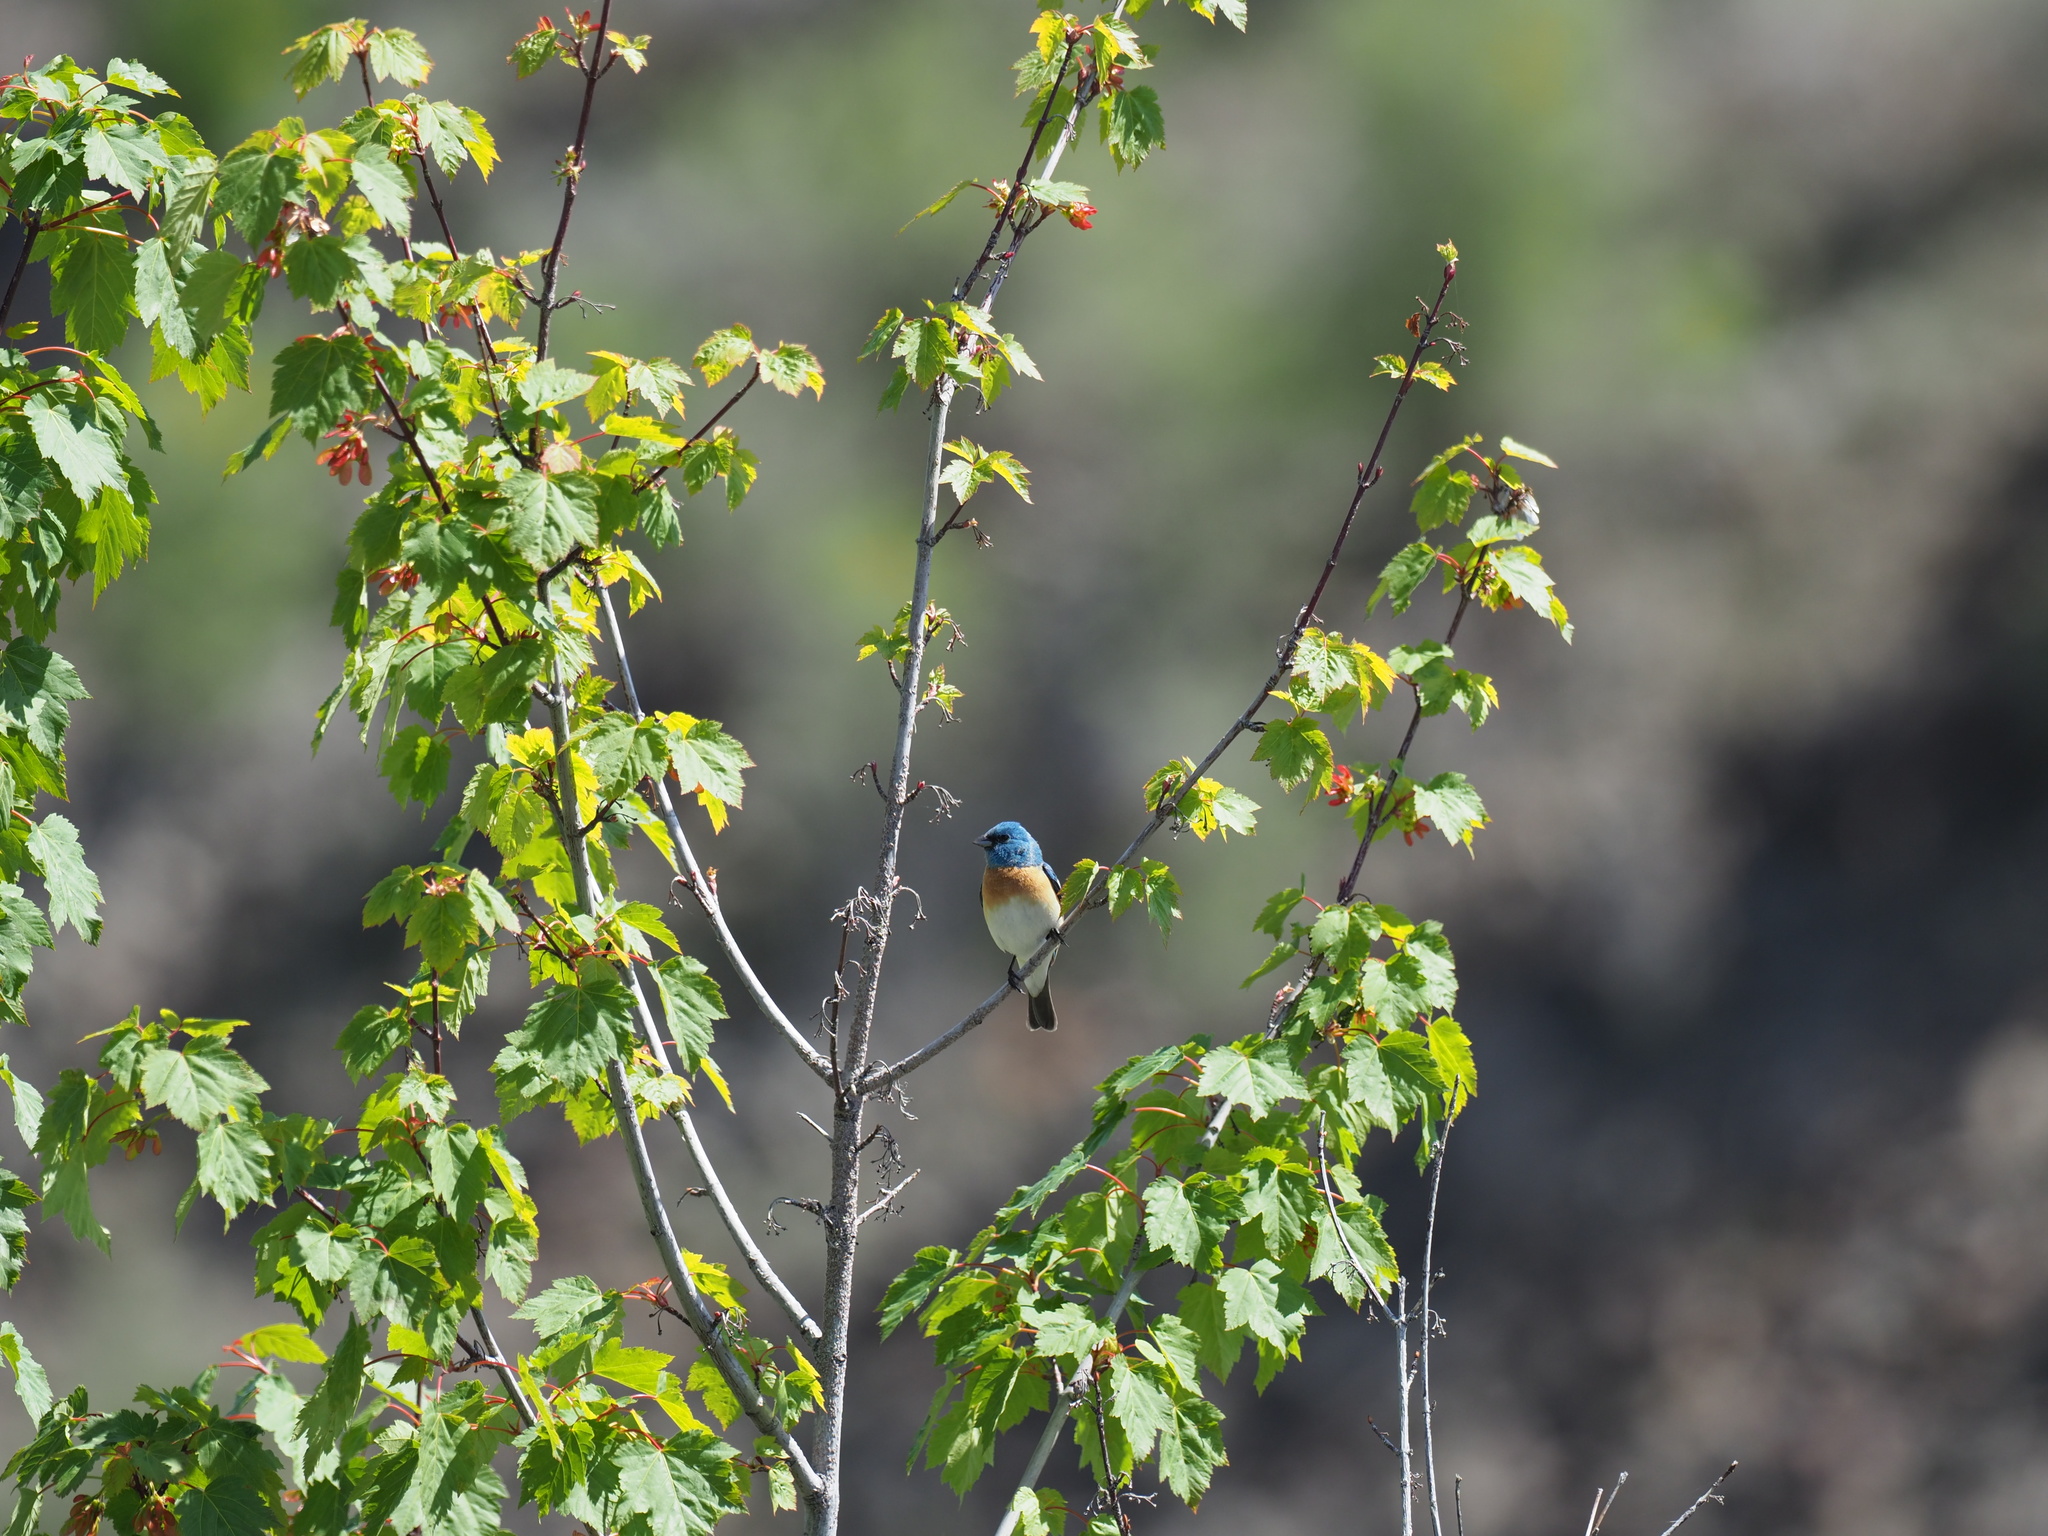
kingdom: Animalia
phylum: Chordata
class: Aves
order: Passeriformes
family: Cardinalidae
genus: Passerina
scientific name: Passerina amoena
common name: Lazuli bunting
